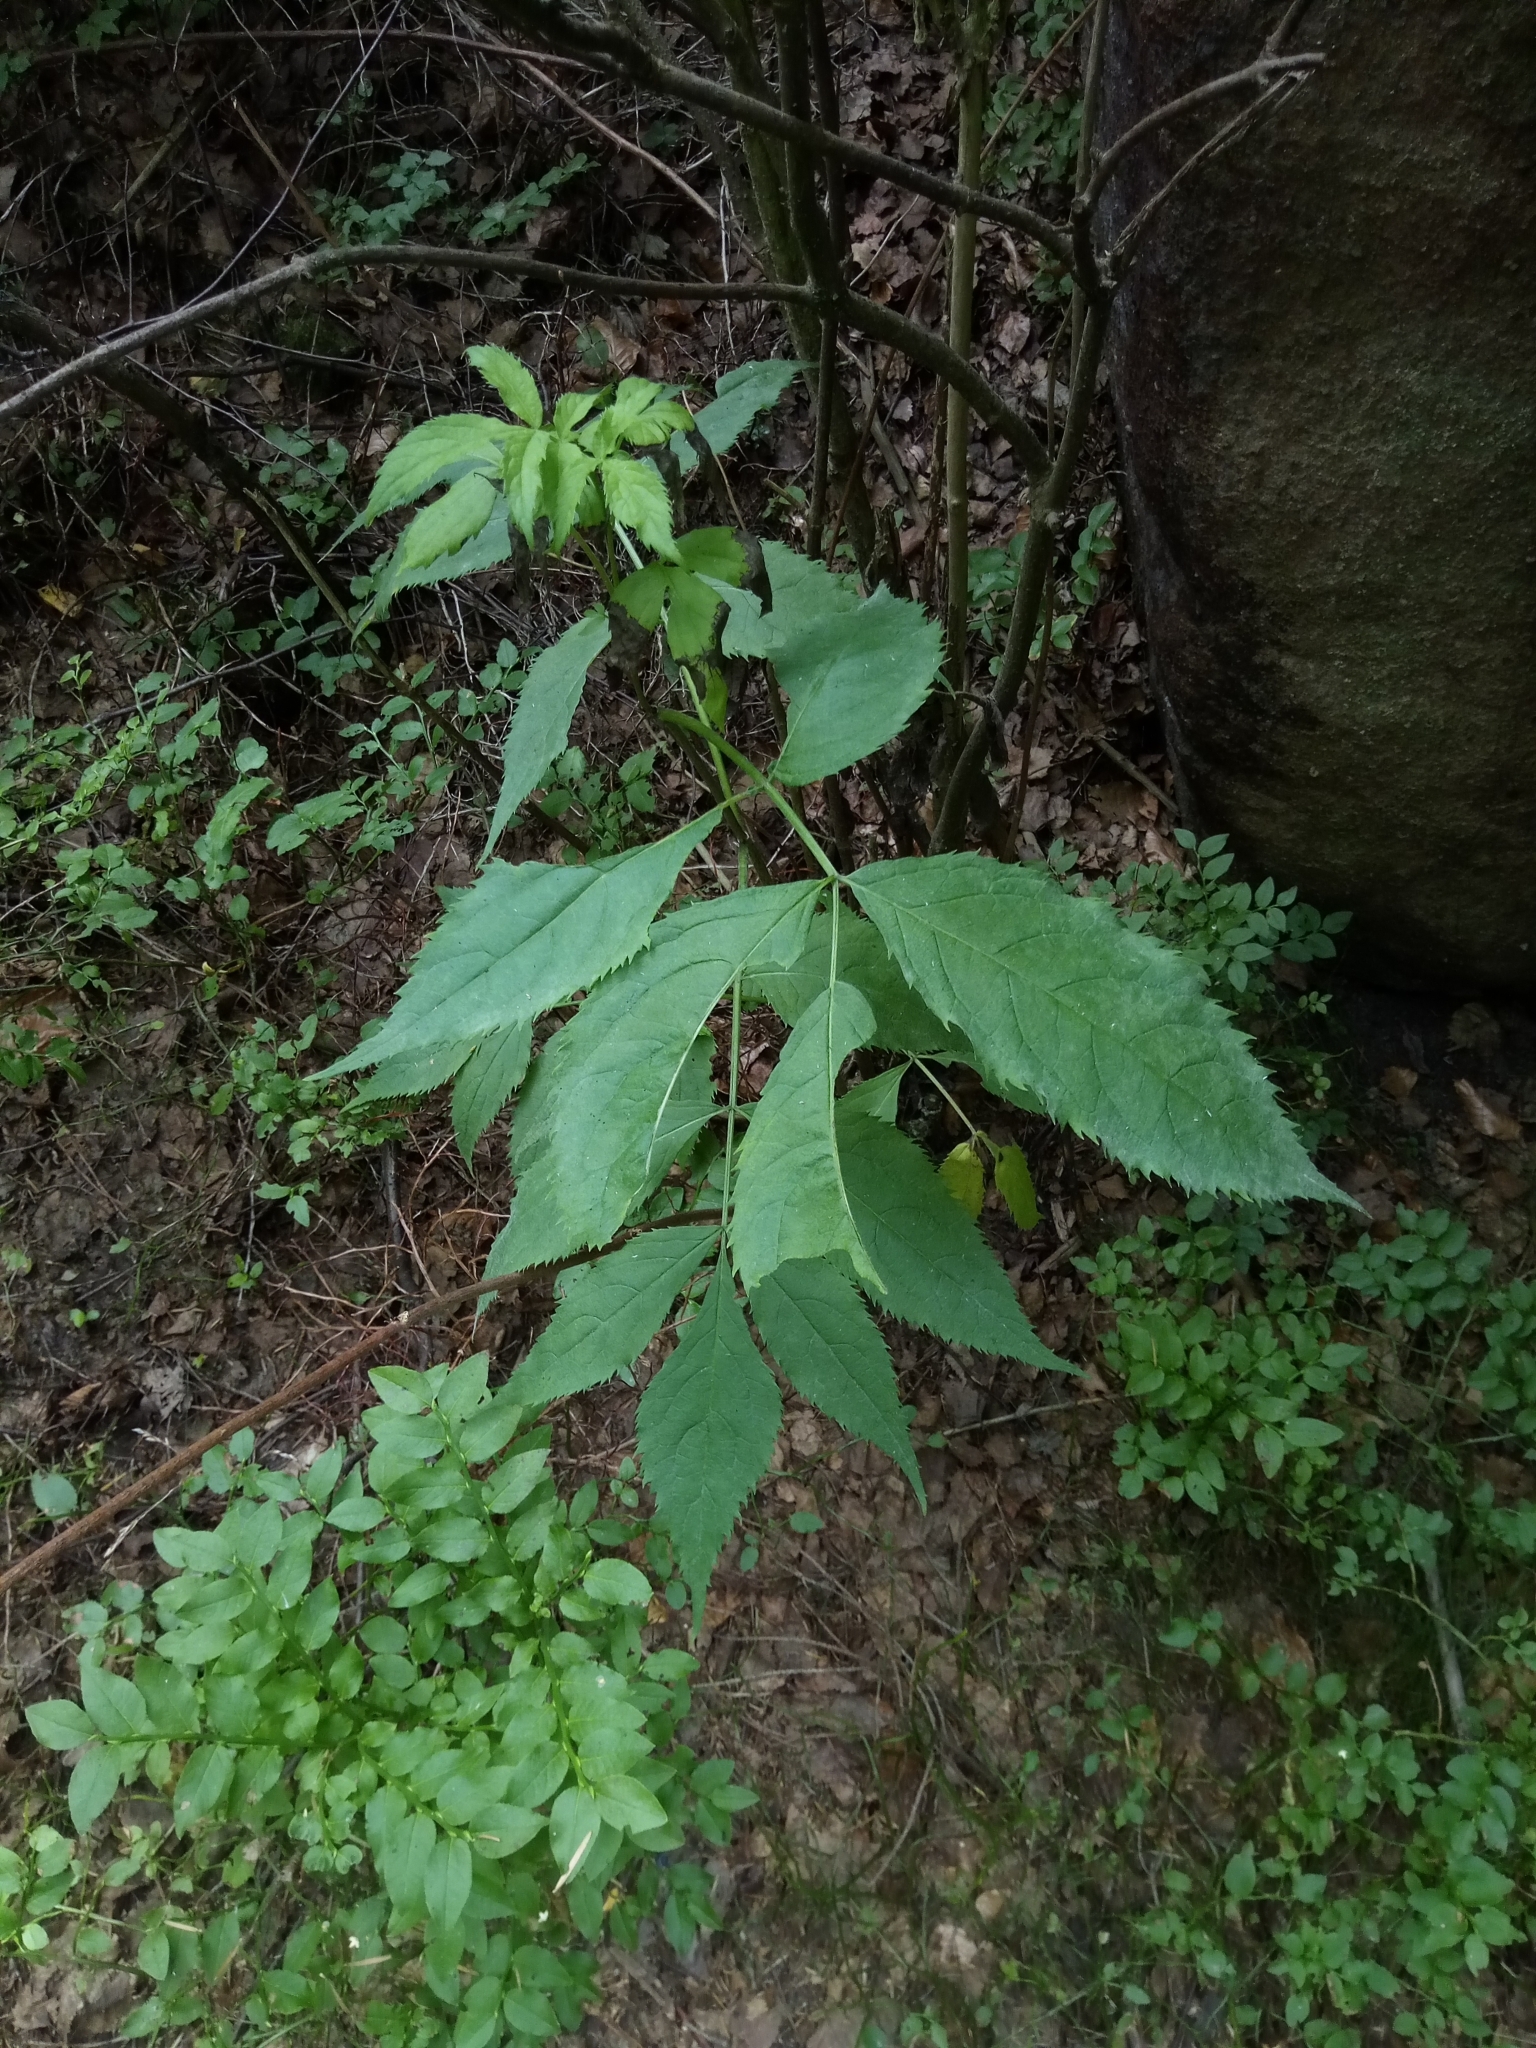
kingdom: Plantae
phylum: Tracheophyta
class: Magnoliopsida
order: Dipsacales
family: Viburnaceae
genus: Sambucus
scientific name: Sambucus nigra
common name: Elder
